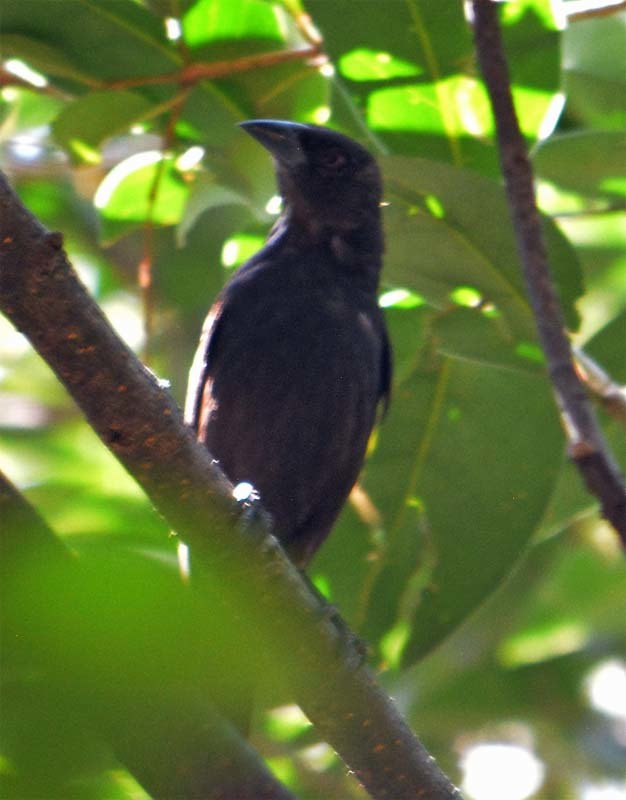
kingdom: Animalia
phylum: Chordata
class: Aves
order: Passeriformes
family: Icteridae
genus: Molothrus
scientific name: Molothrus aeneus
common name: Bronzed cowbird
